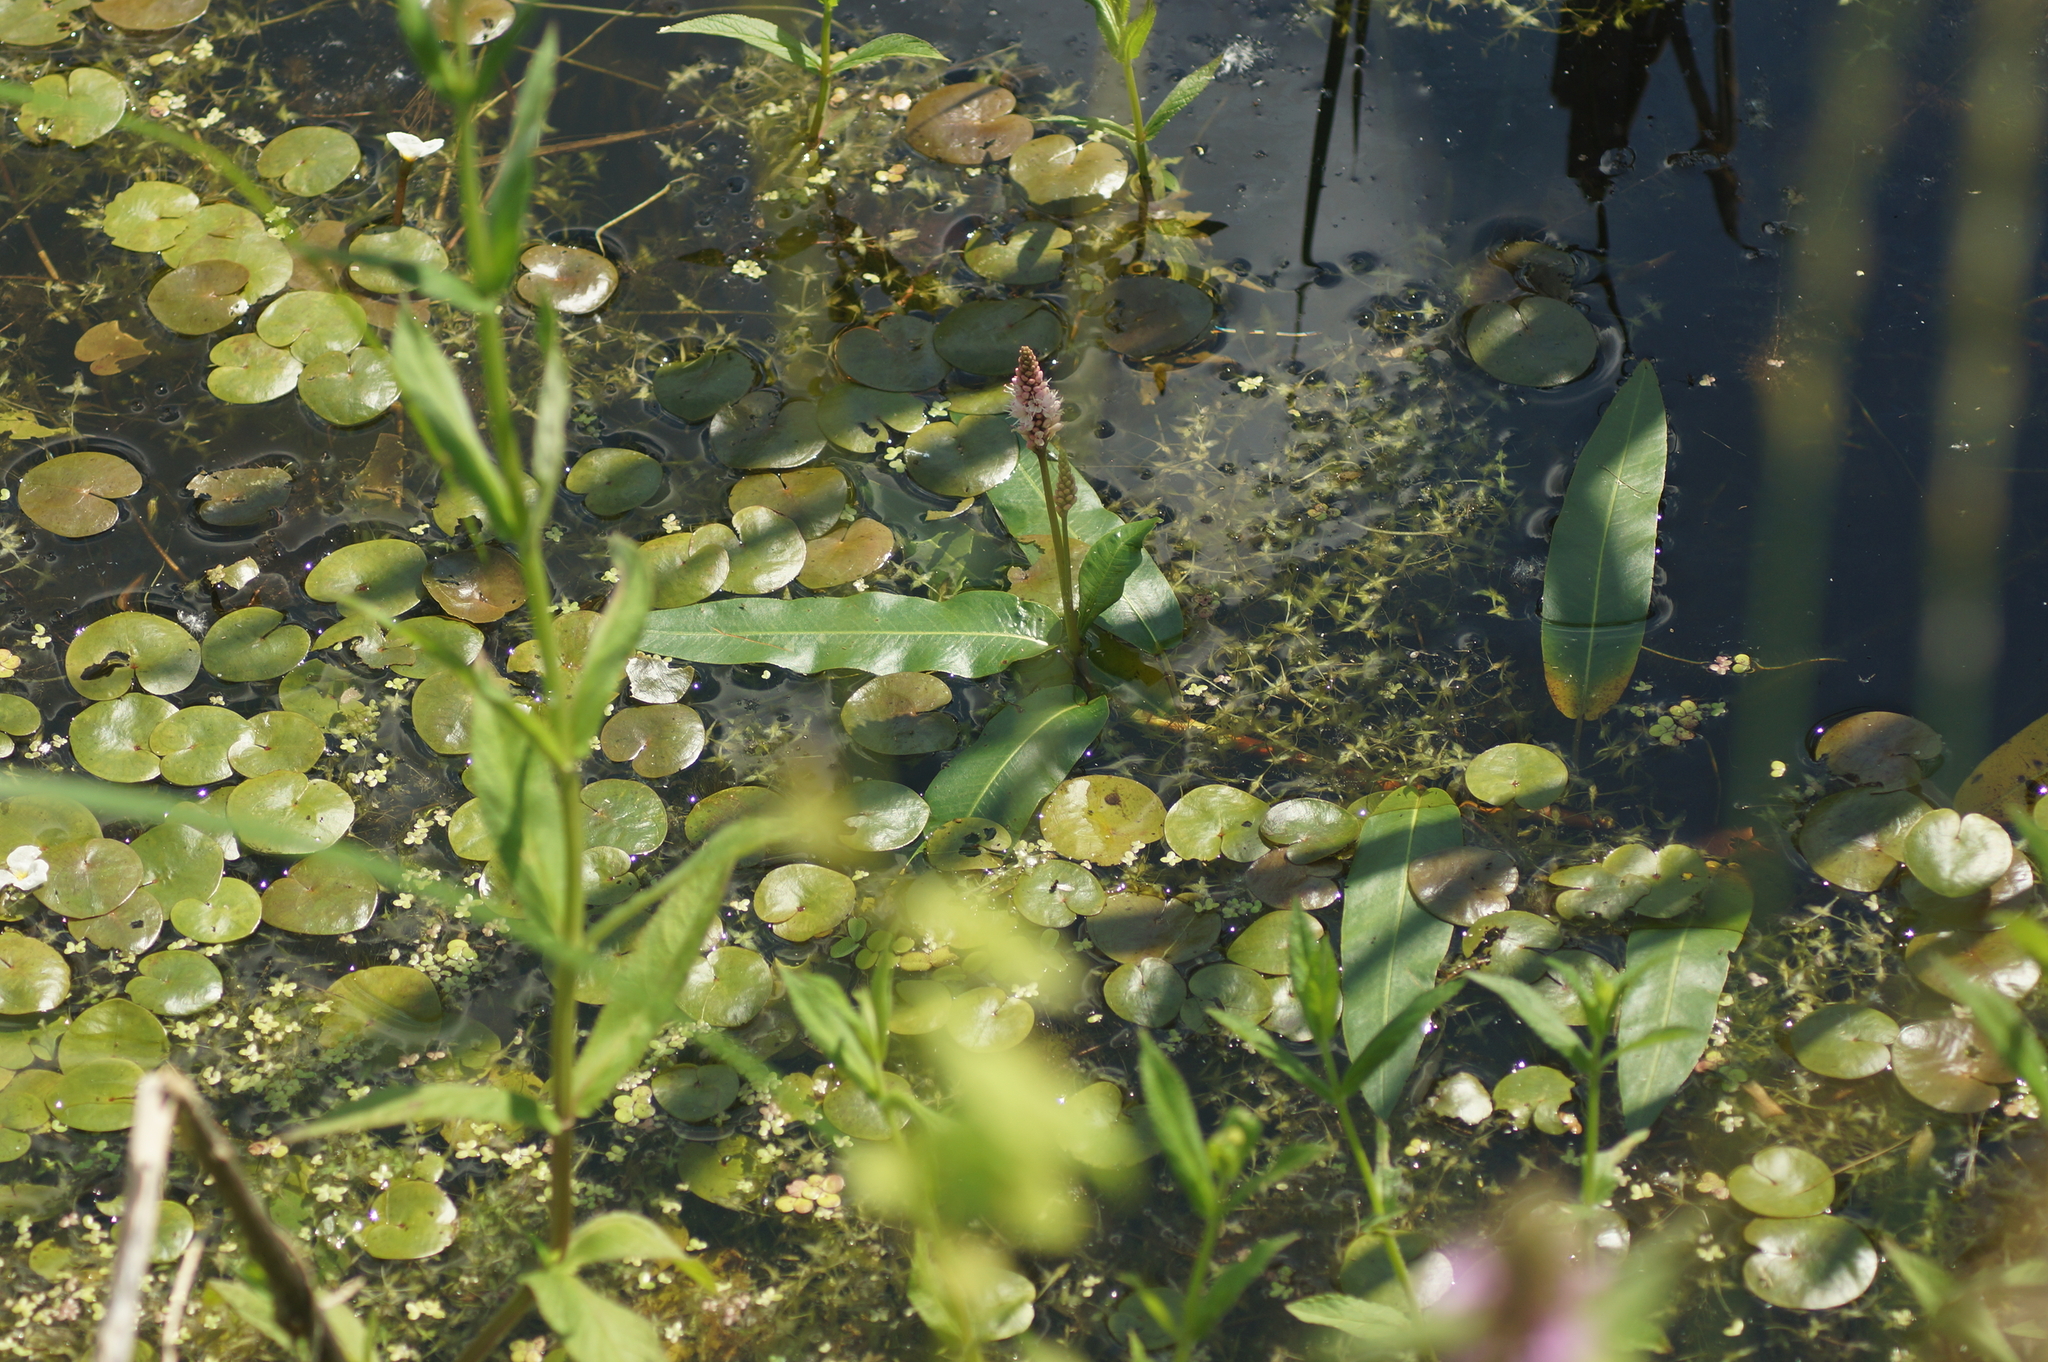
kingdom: Plantae
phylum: Tracheophyta
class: Magnoliopsida
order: Caryophyllales
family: Polygonaceae
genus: Persicaria
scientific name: Persicaria amphibia
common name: Amphibious bistort
